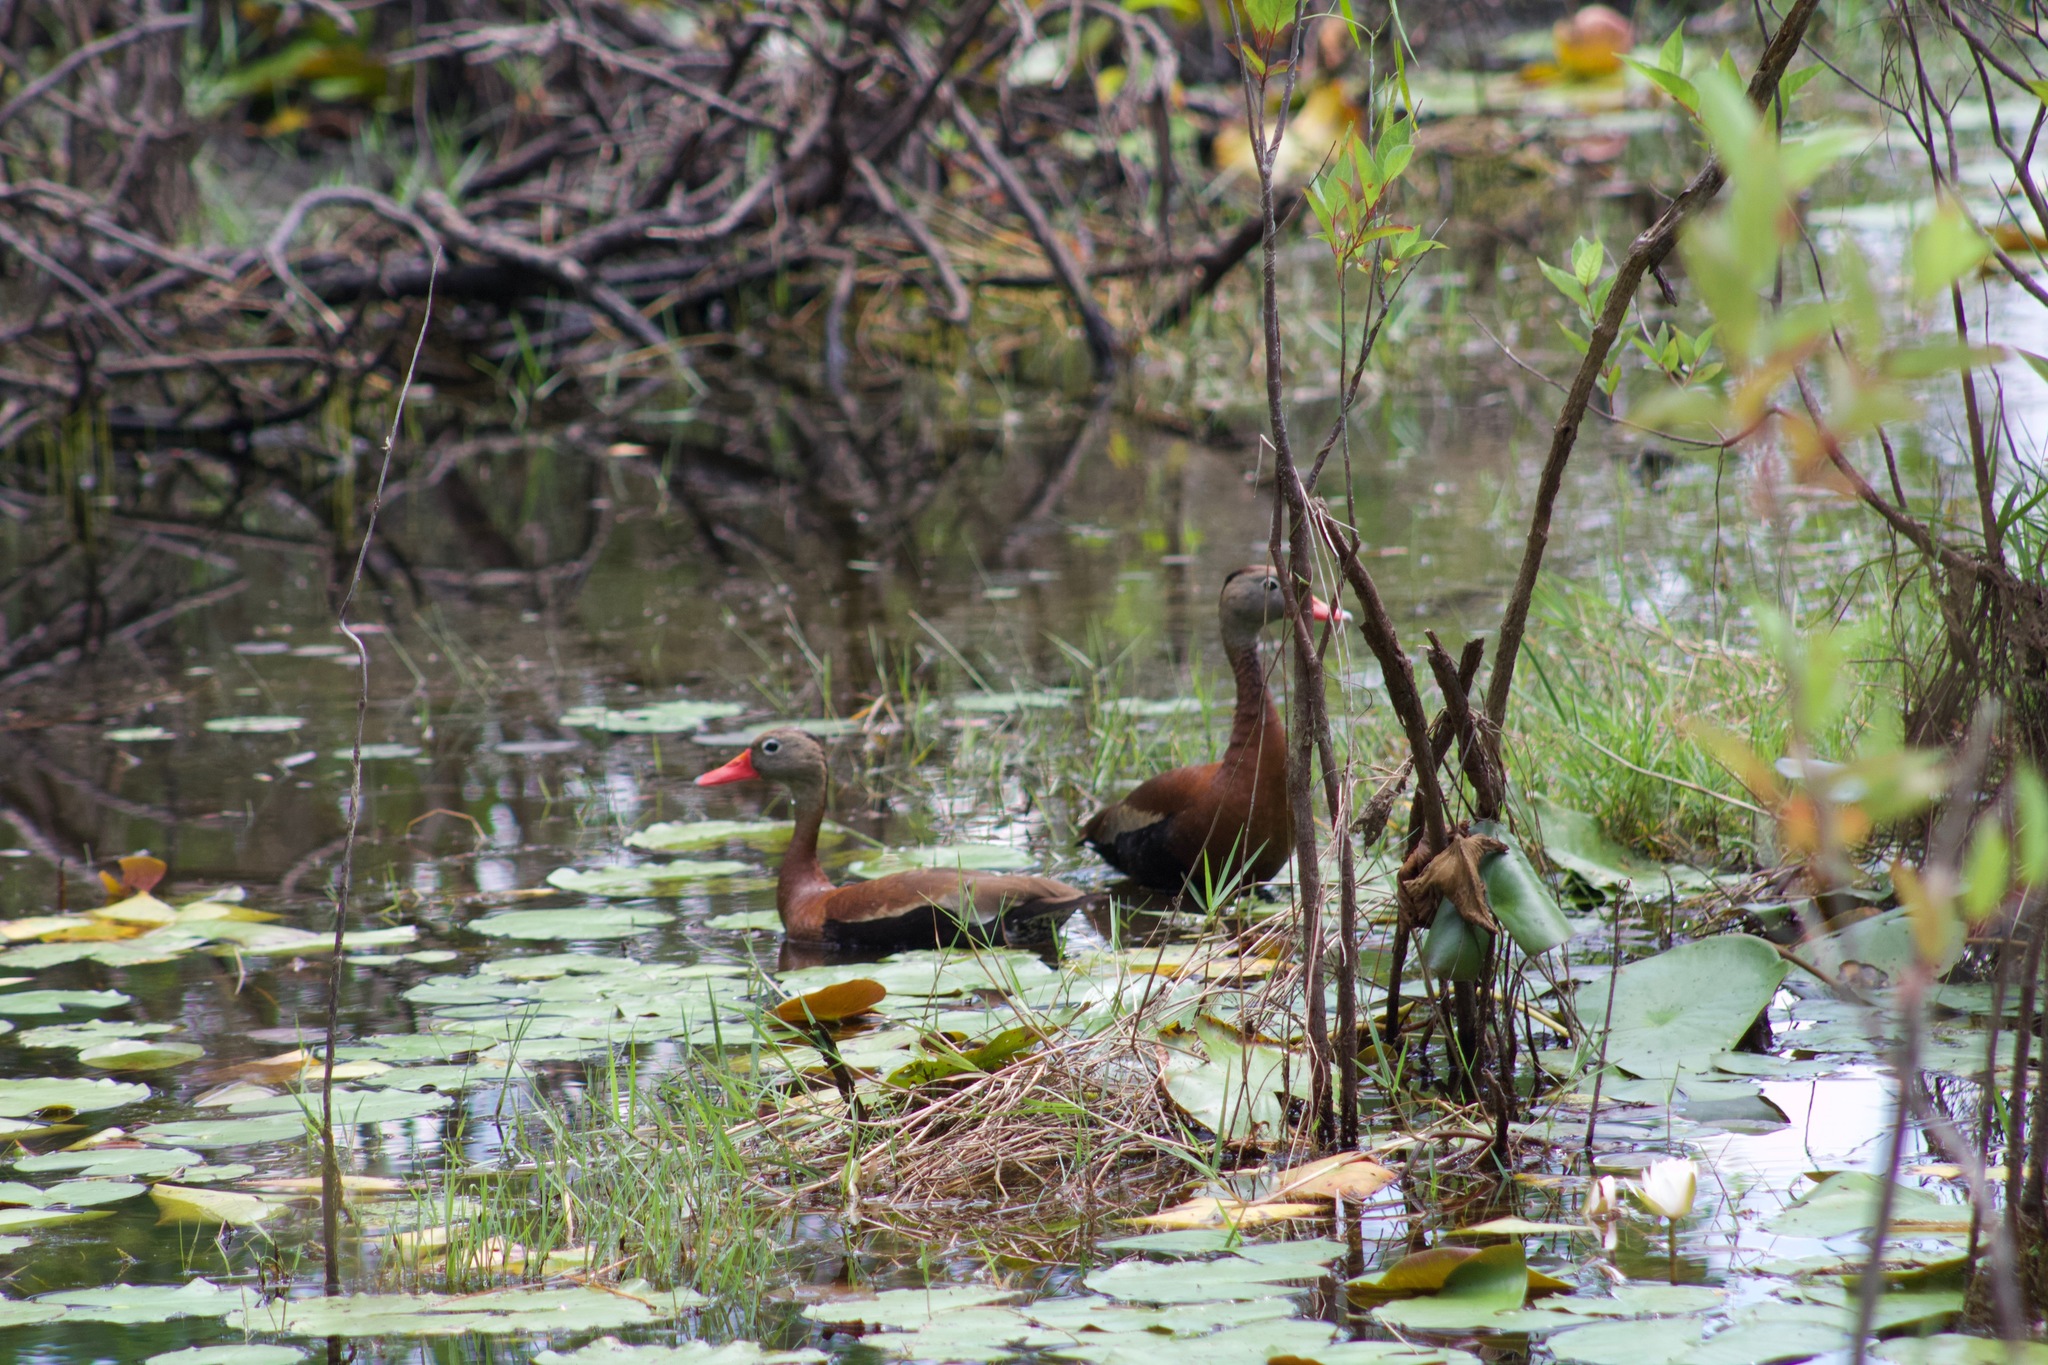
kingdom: Animalia
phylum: Chordata
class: Aves
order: Anseriformes
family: Anatidae
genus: Dendrocygna
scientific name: Dendrocygna autumnalis
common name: Black-bellied whistling duck
